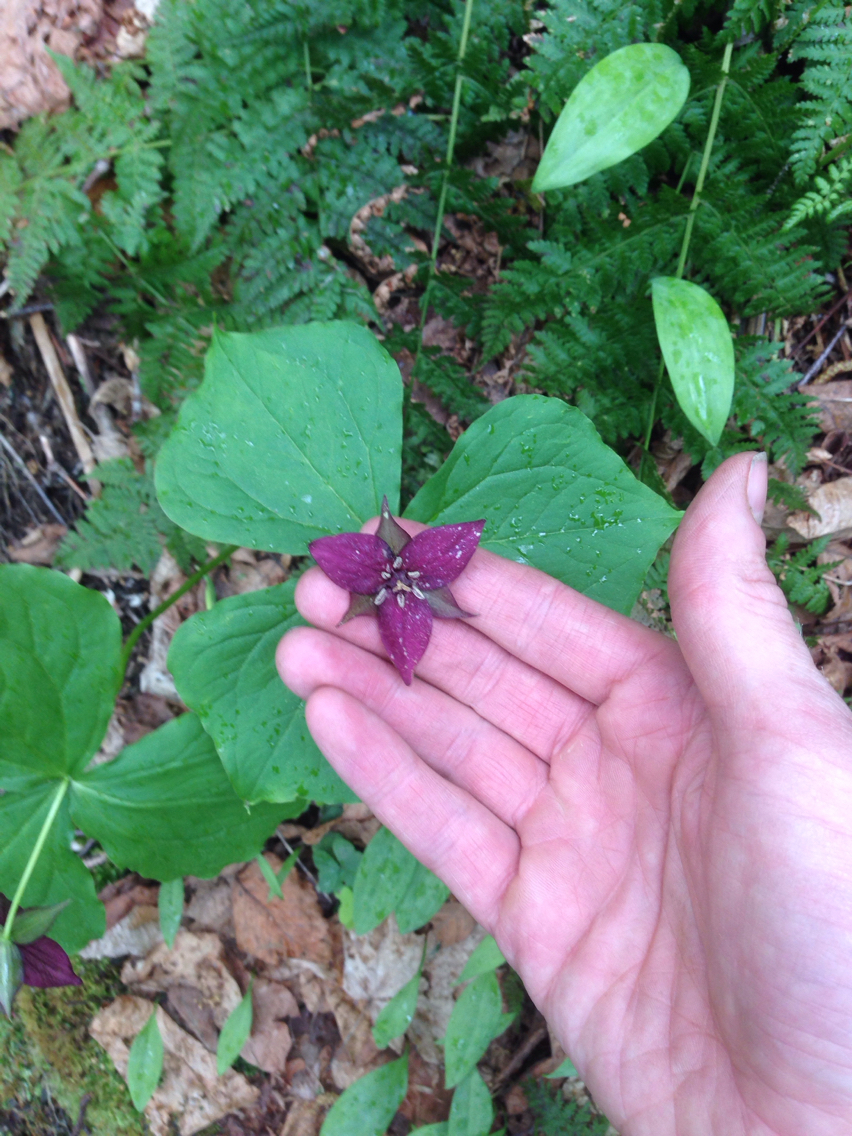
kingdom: Plantae
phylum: Tracheophyta
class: Liliopsida
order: Liliales
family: Melanthiaceae
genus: Trillium
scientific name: Trillium erectum
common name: Purple trillium
